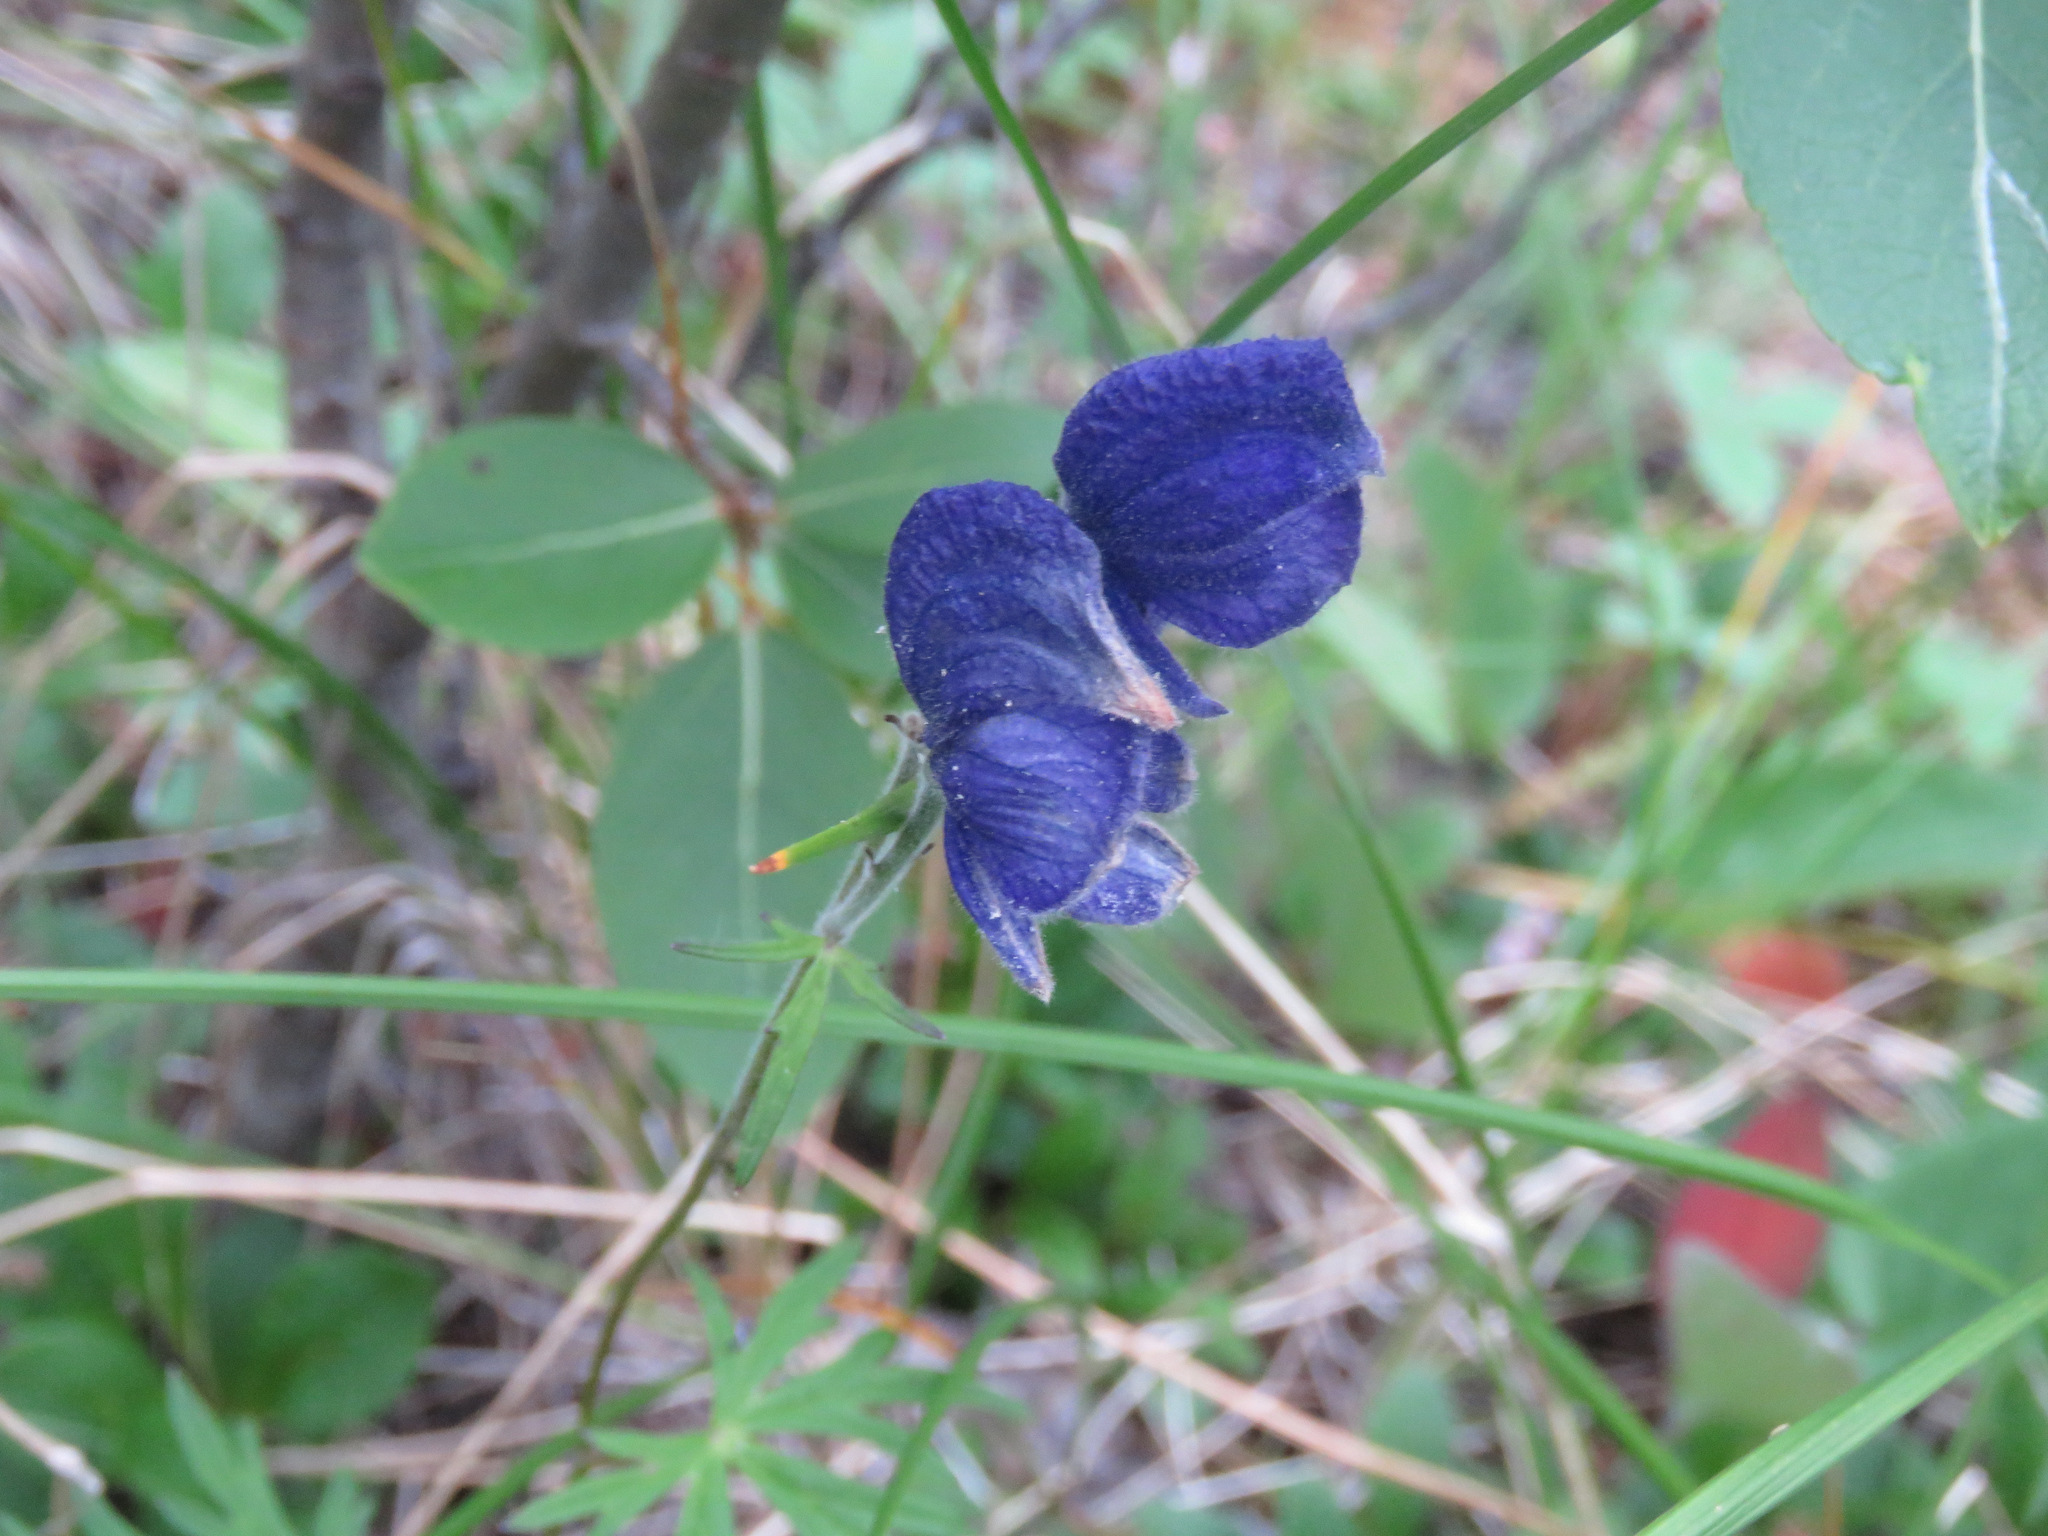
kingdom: Plantae
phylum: Tracheophyta
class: Magnoliopsida
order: Ranunculales
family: Ranunculaceae
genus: Aconitum
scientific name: Aconitum delphiniifolium
